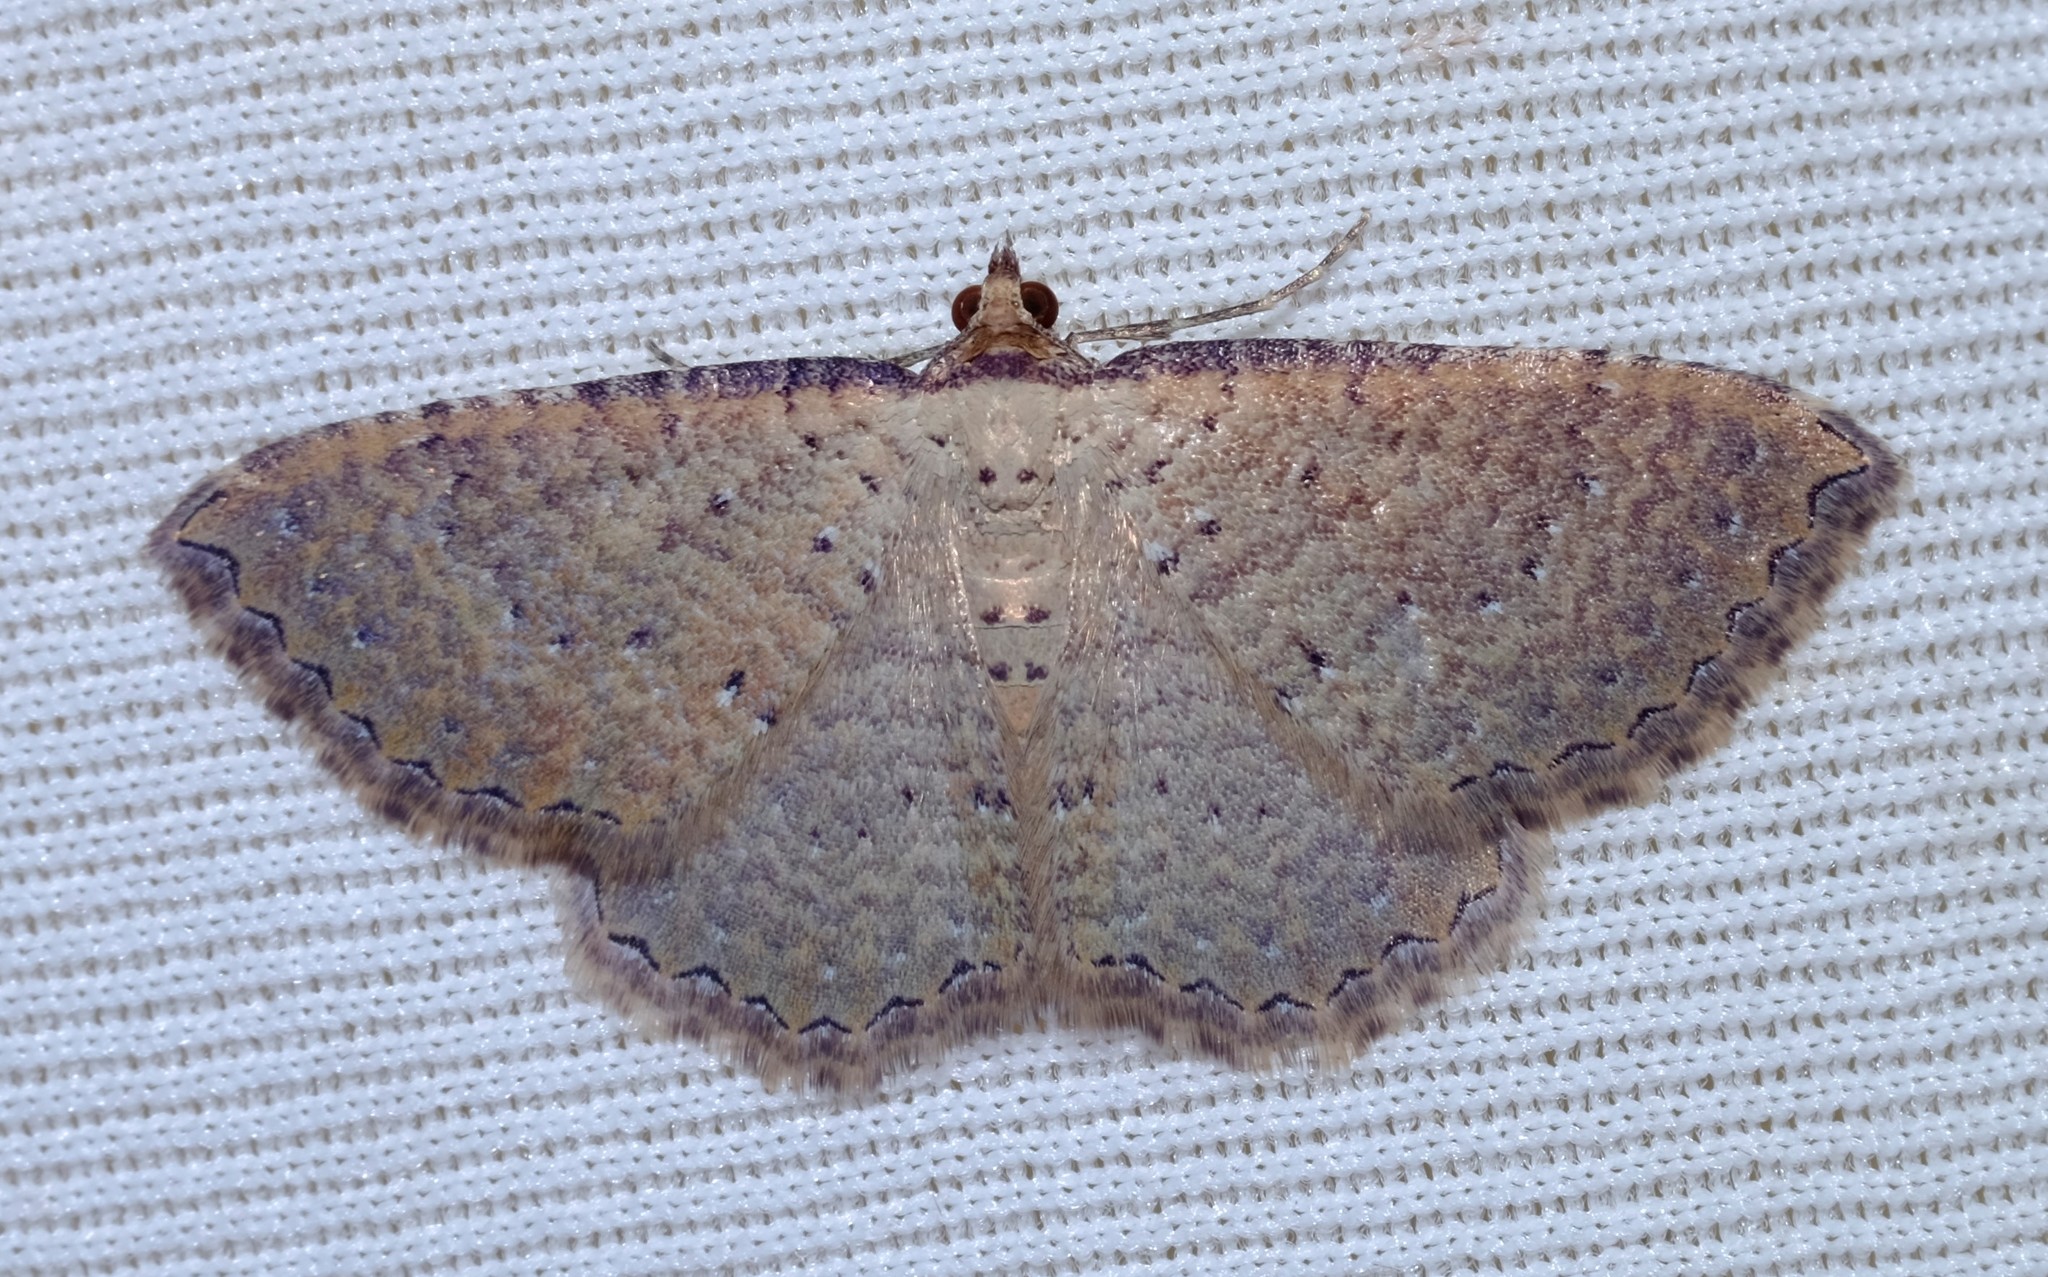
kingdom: Animalia
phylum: Arthropoda
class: Insecta
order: Lepidoptera
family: Geometridae
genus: Chrysolarentia
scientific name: Chrysolarentia microcyma
